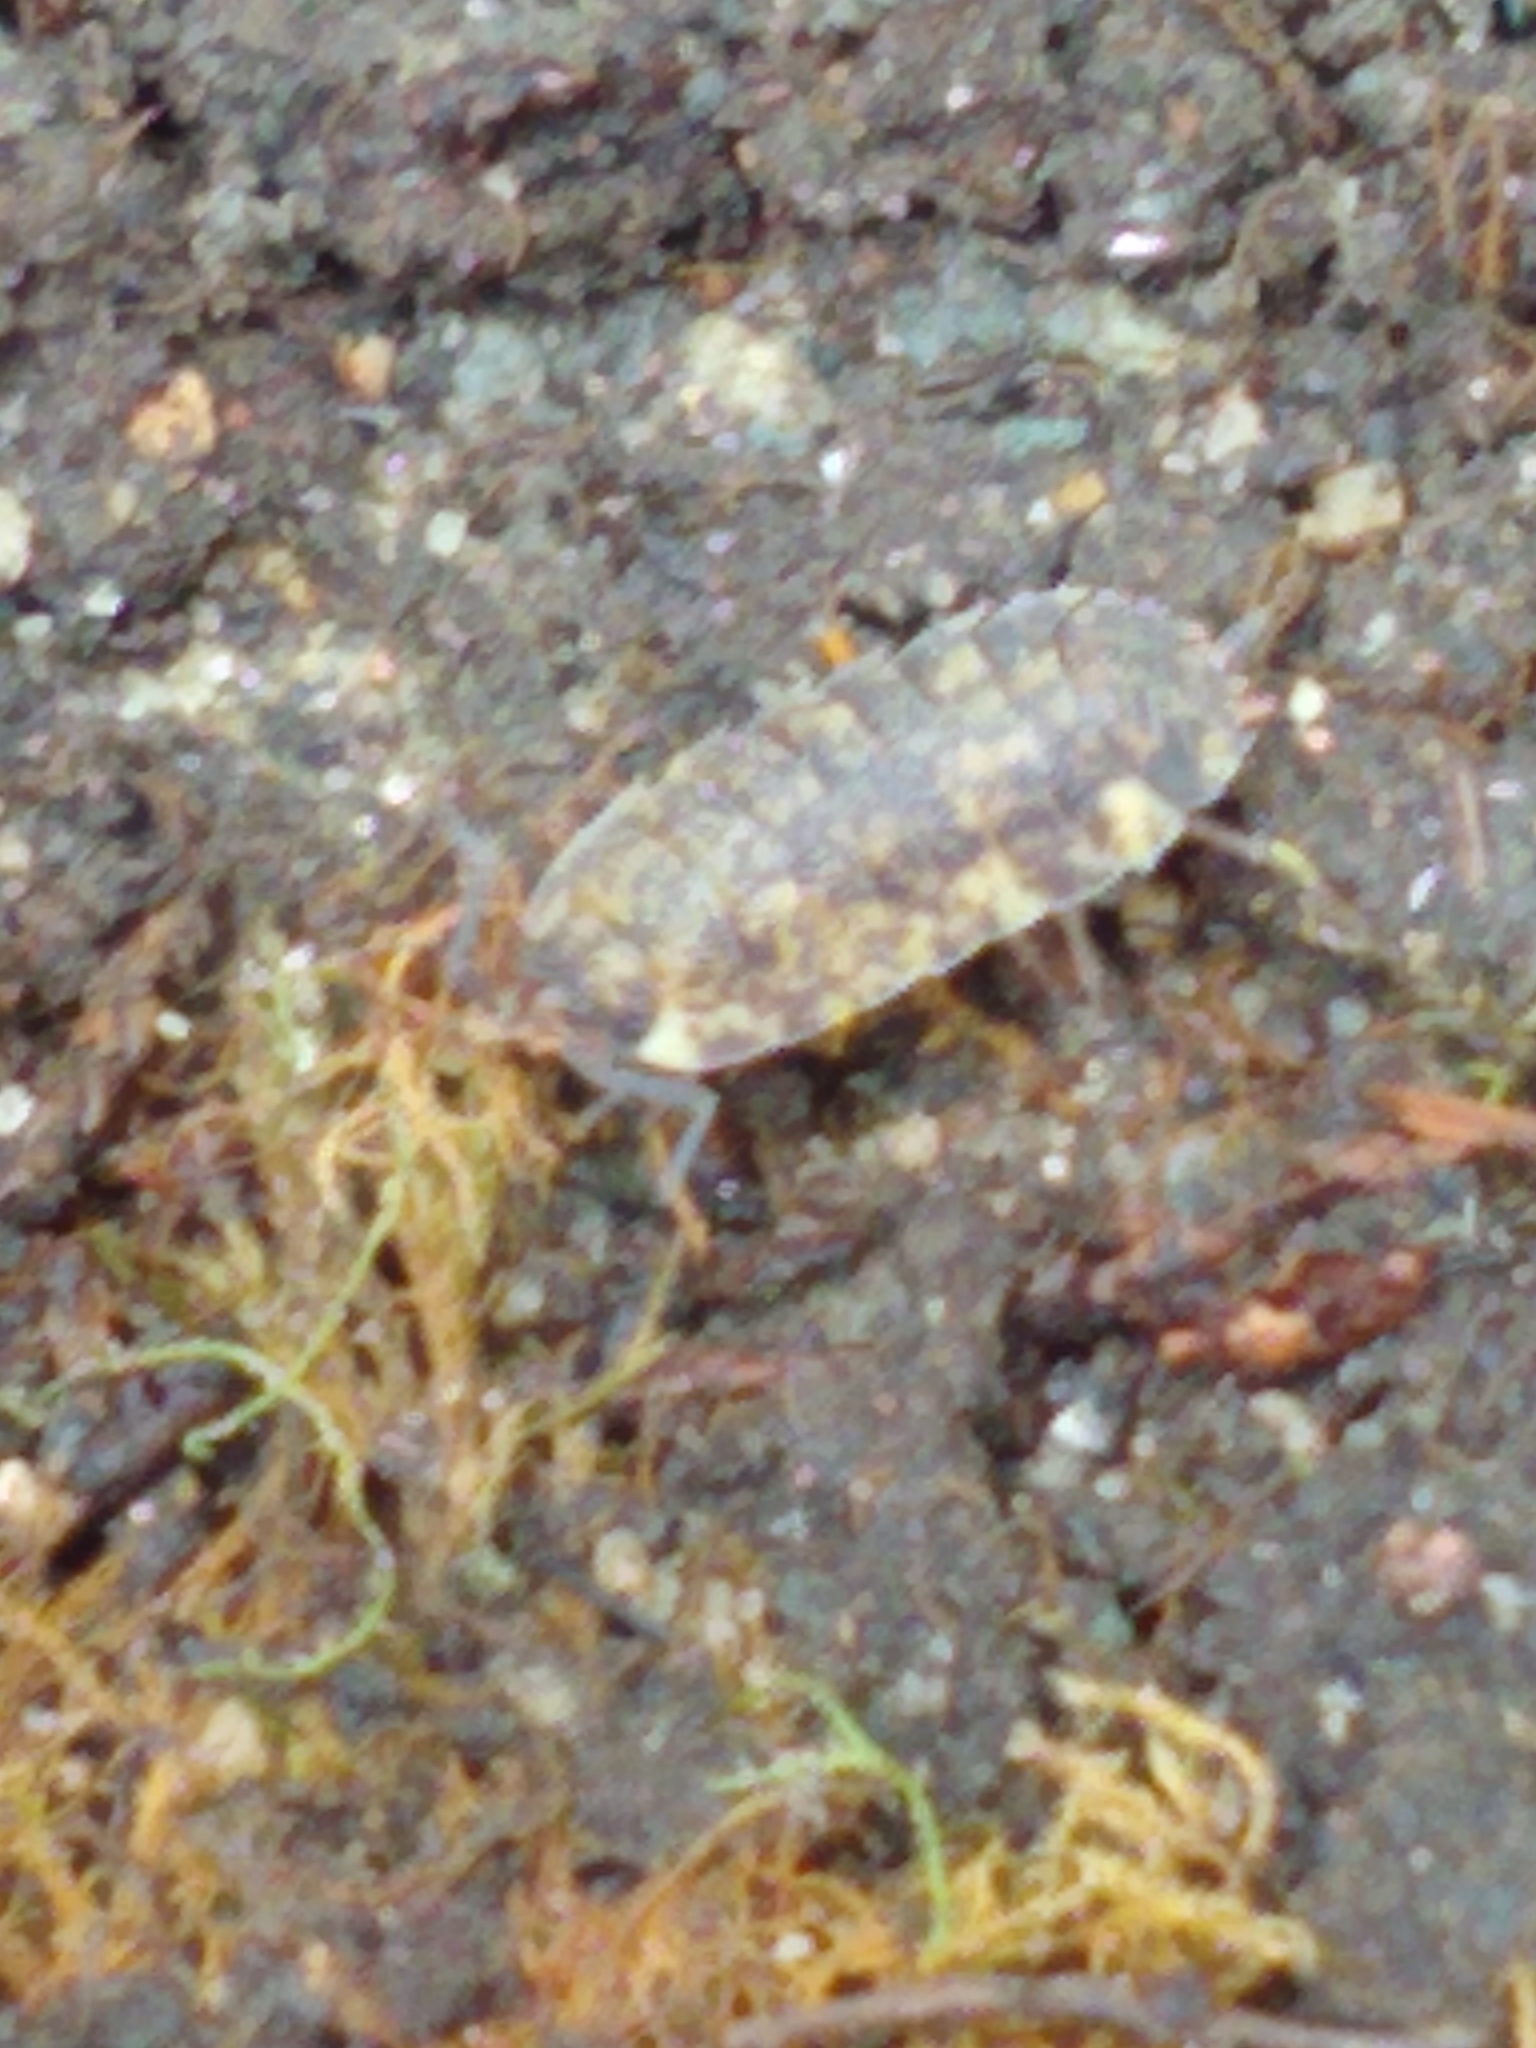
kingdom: Animalia
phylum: Arthropoda
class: Malacostraca
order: Isopoda
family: Porcellionidae
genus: Porcellio
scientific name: Porcellio scaber
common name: Common rough woodlouse
